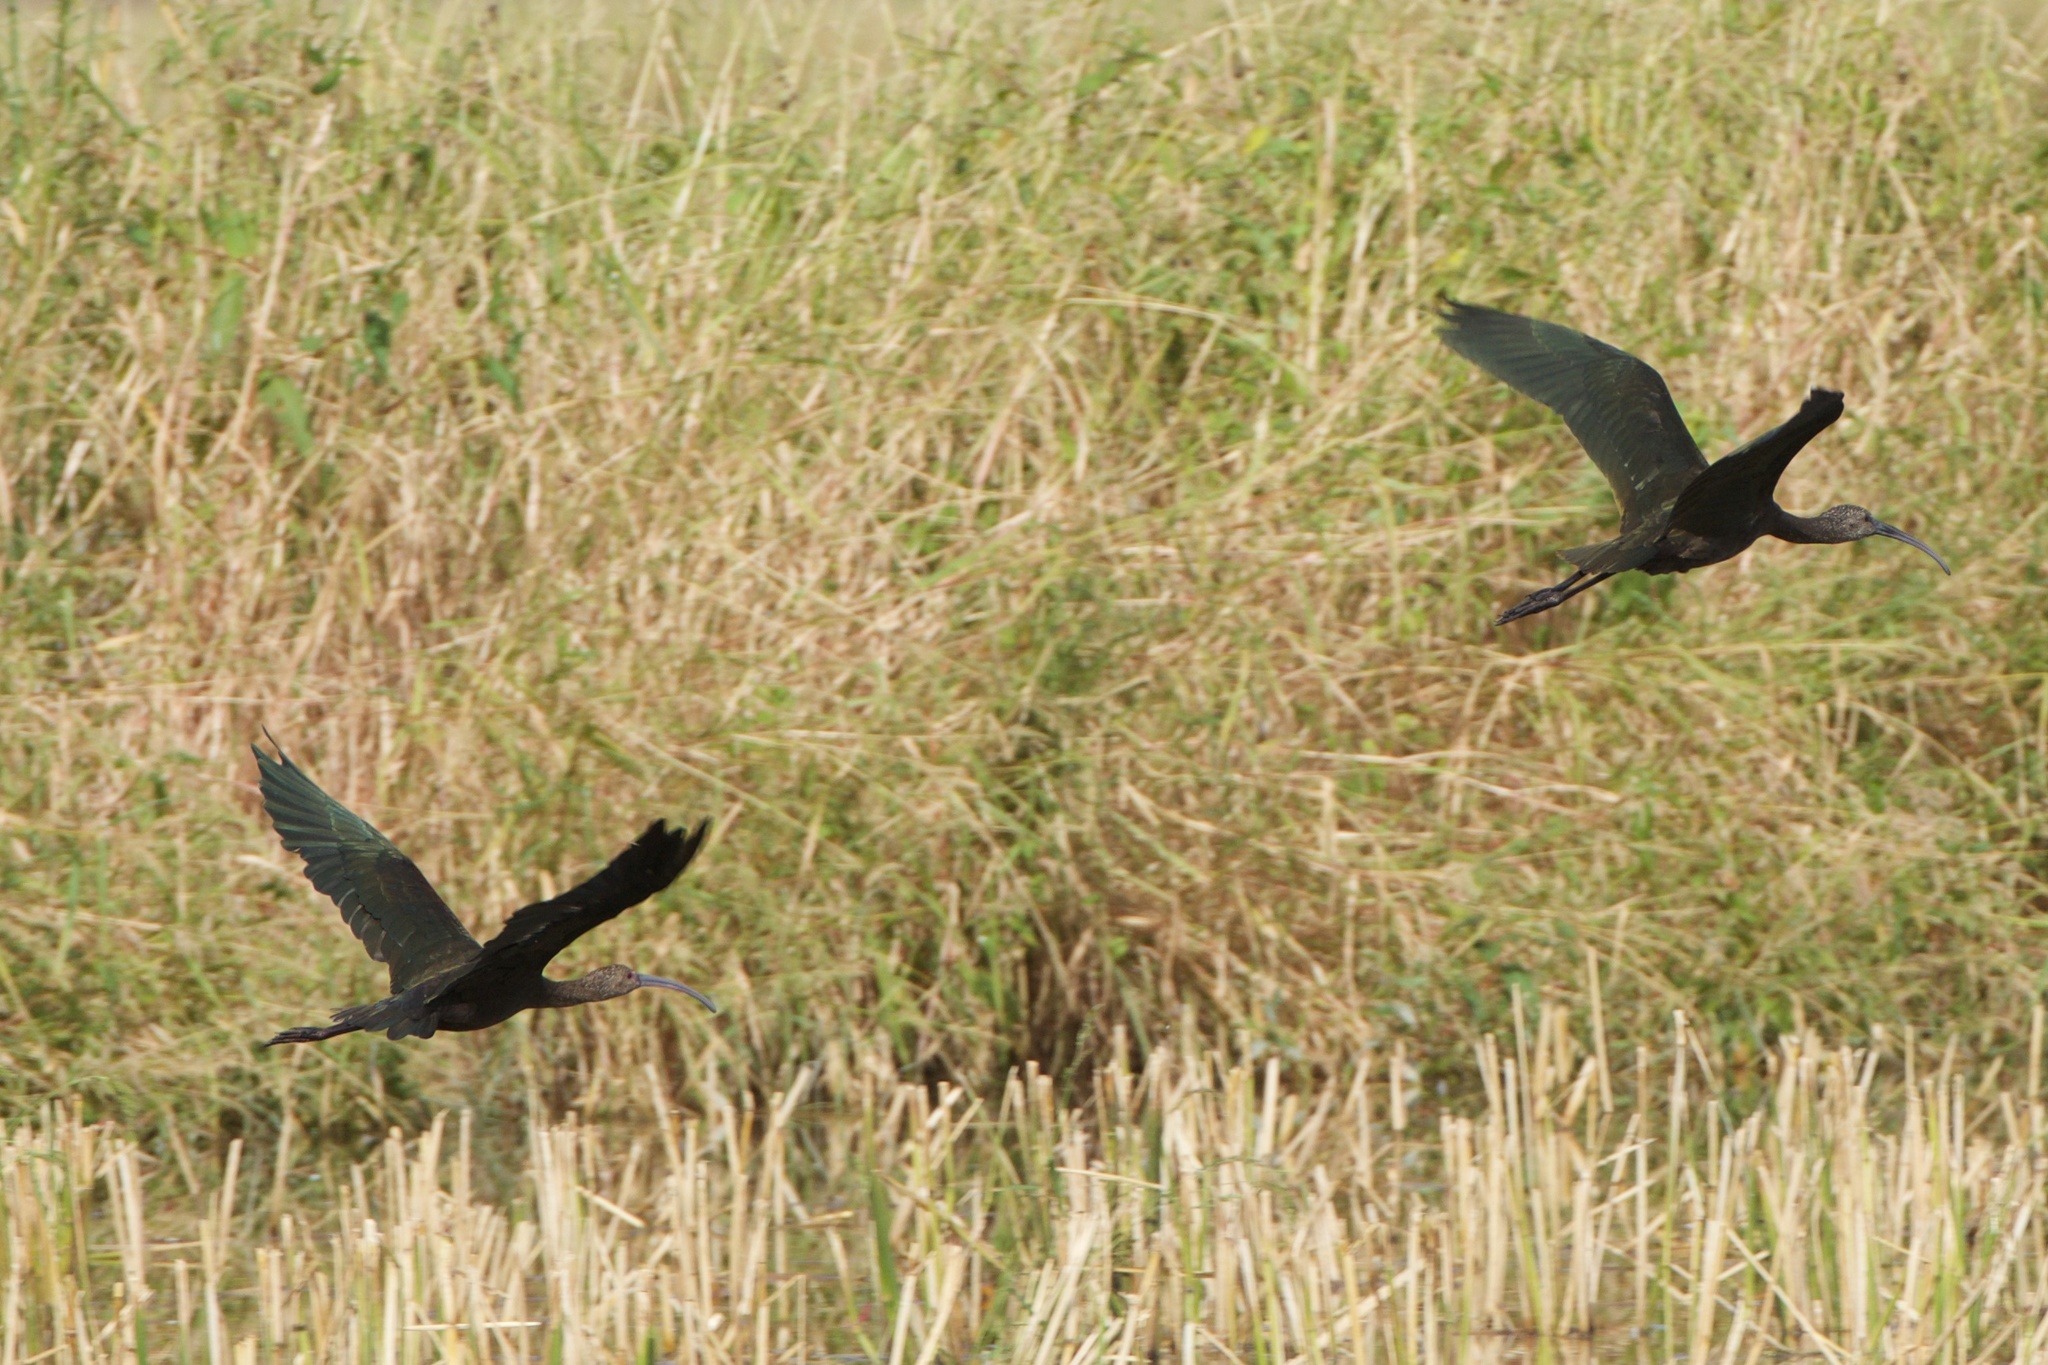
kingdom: Animalia
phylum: Chordata
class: Aves
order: Pelecaniformes
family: Threskiornithidae
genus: Plegadis
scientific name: Plegadis chihi
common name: White-faced ibis
